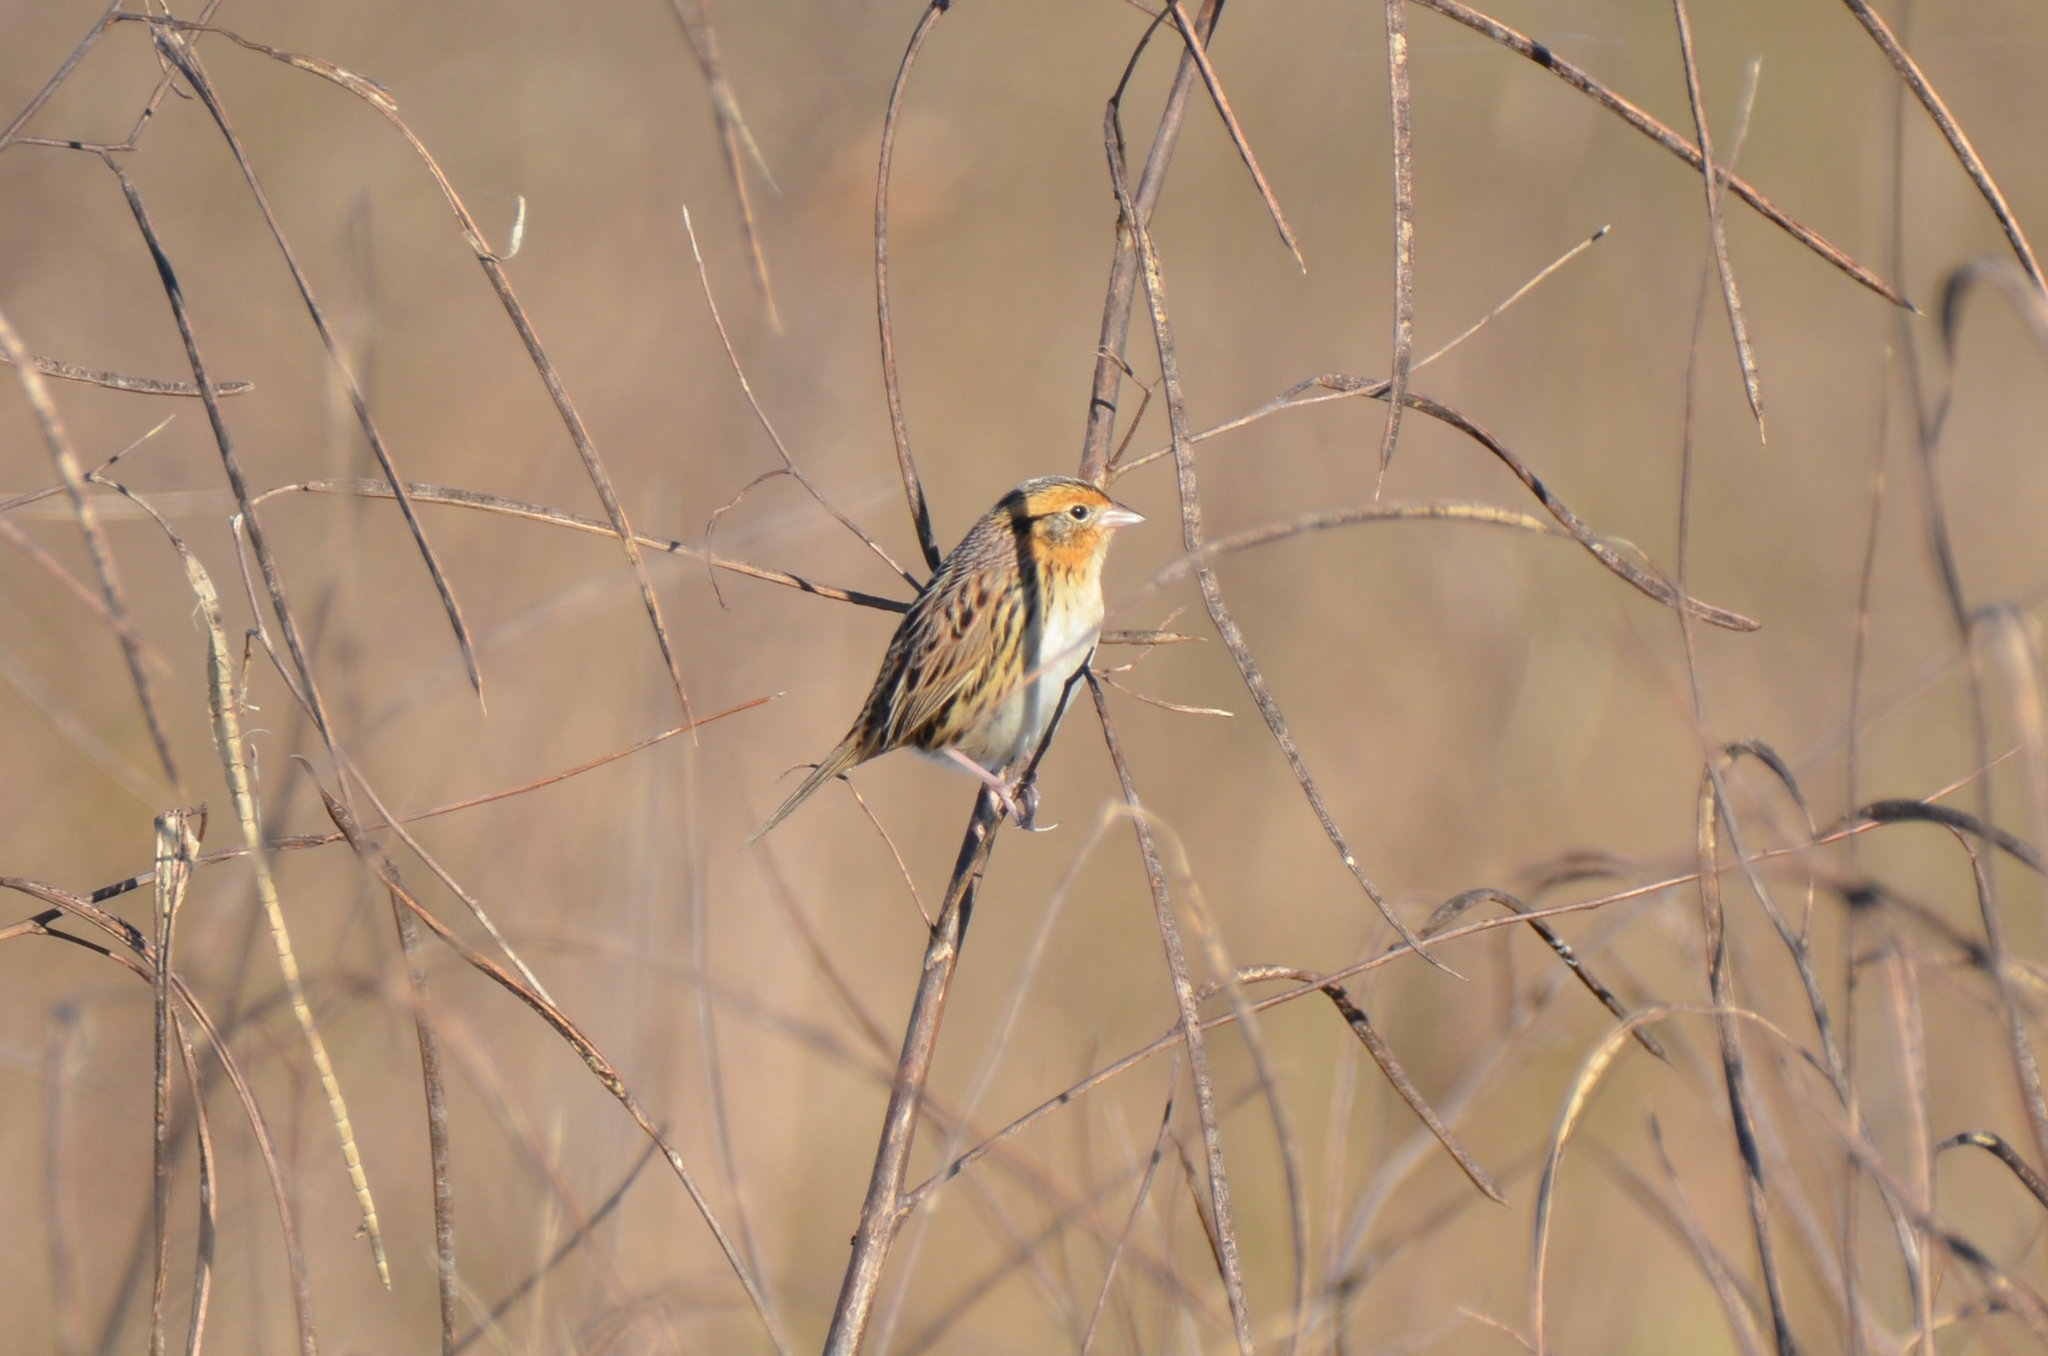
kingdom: Animalia
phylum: Chordata
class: Aves
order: Passeriformes
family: Passerellidae
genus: Ammospiza
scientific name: Ammospiza leconteii
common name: Le conte's sparrow
